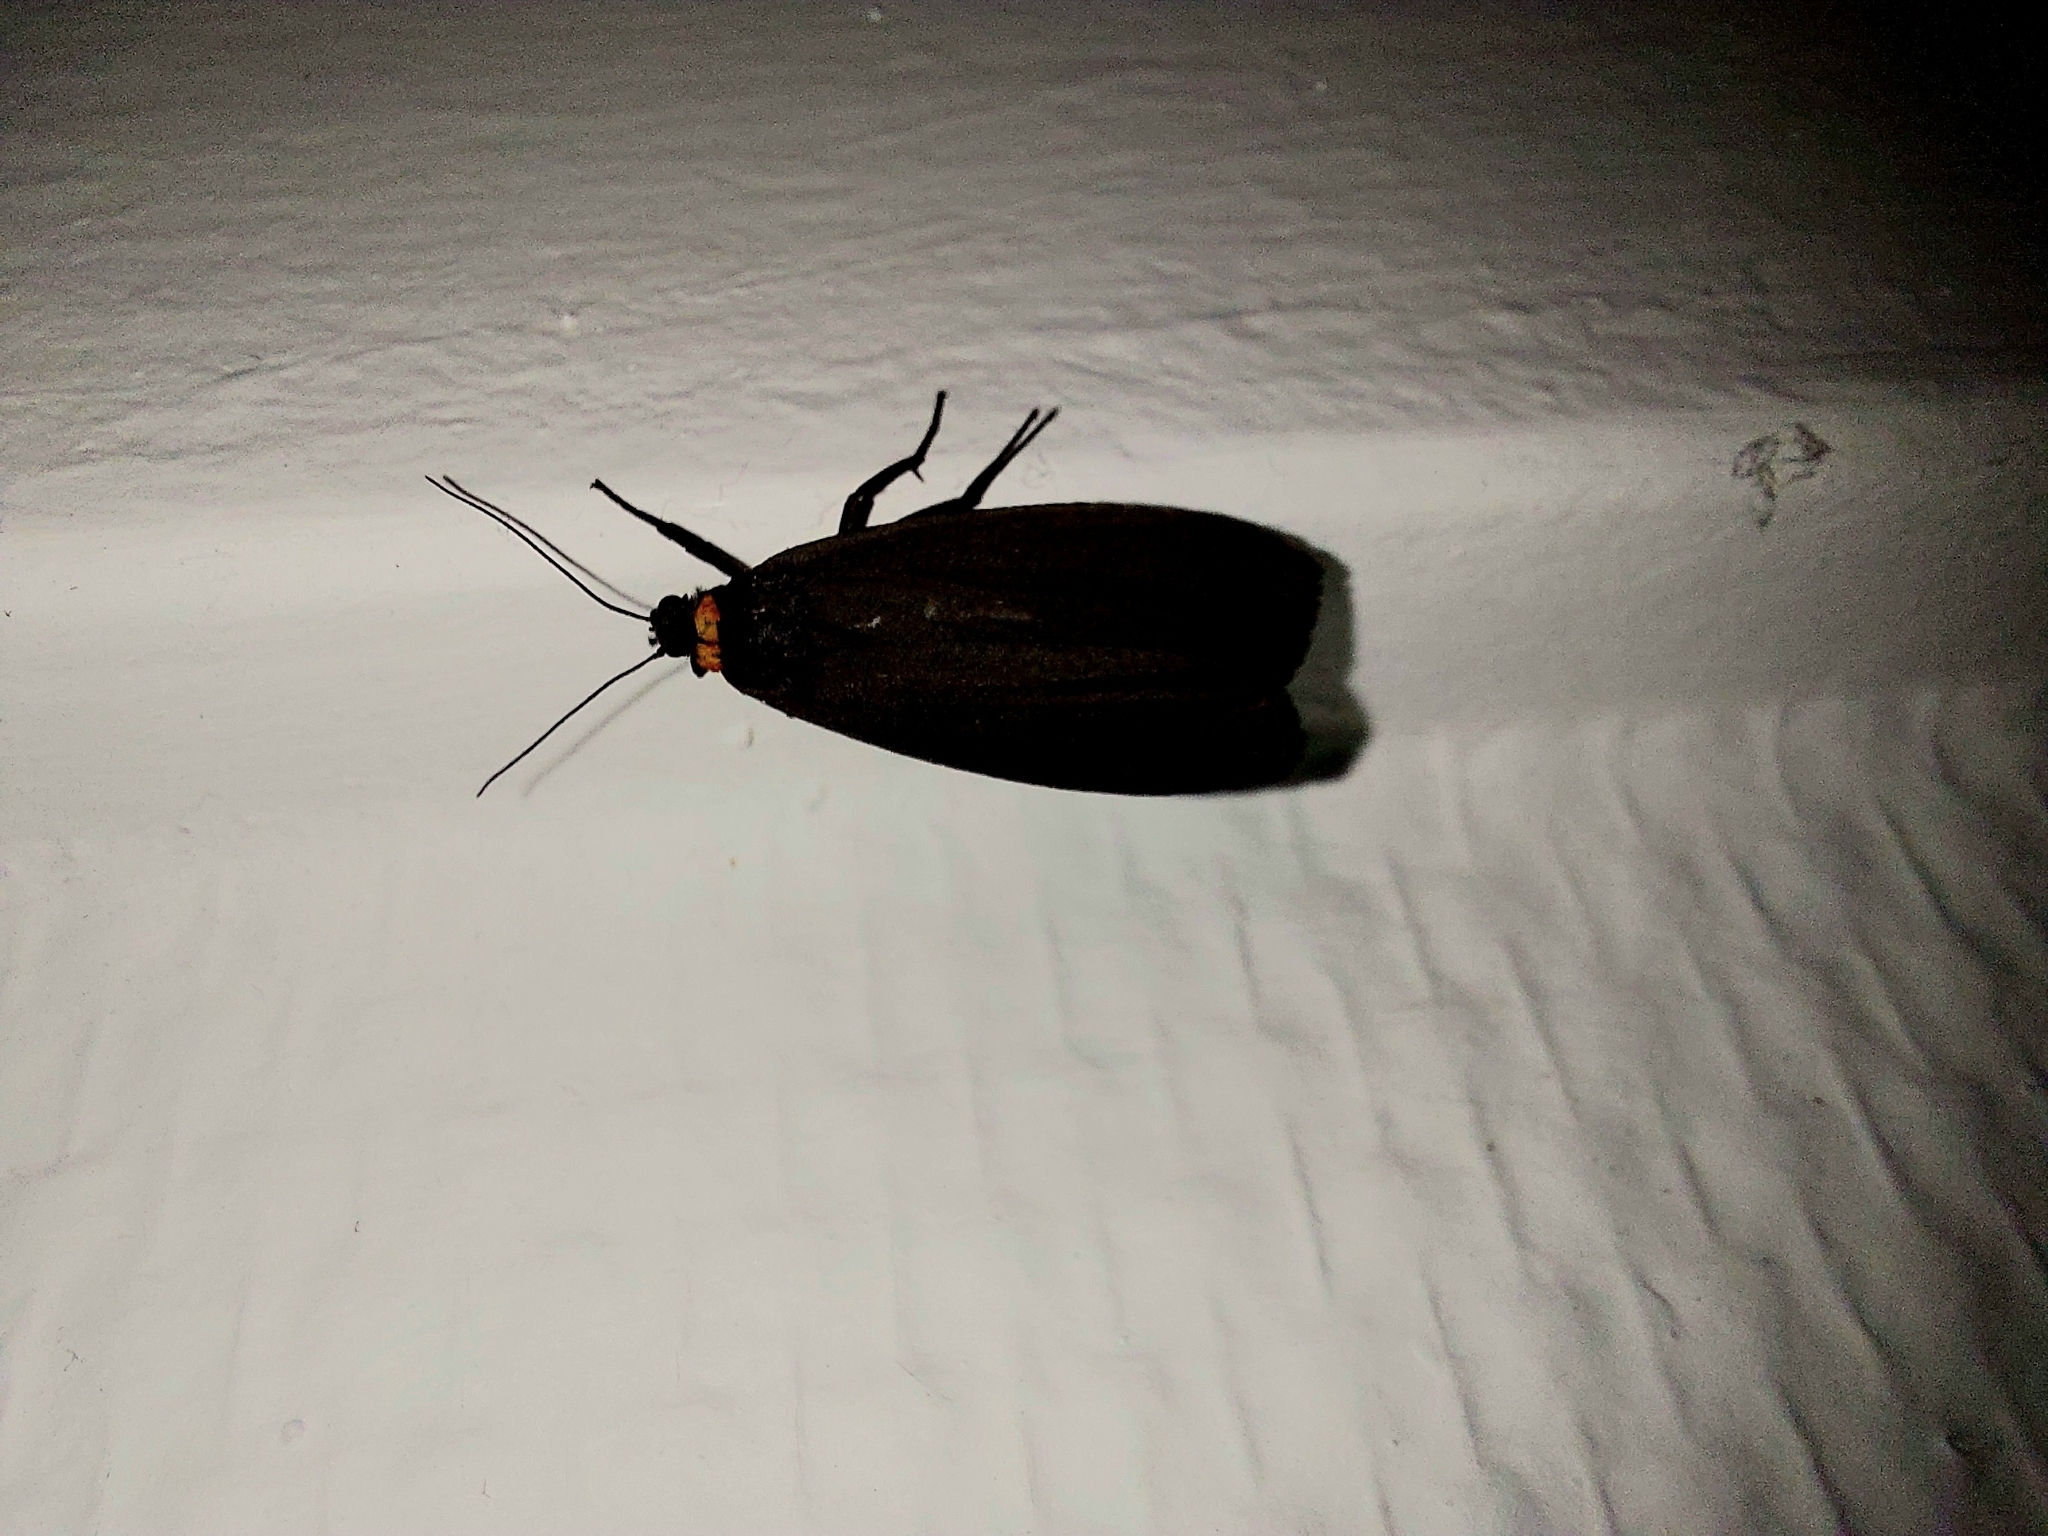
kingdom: Animalia
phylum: Arthropoda
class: Insecta
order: Lepidoptera
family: Erebidae
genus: Atolmis
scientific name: Atolmis rubricollis
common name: Red-necked footman
